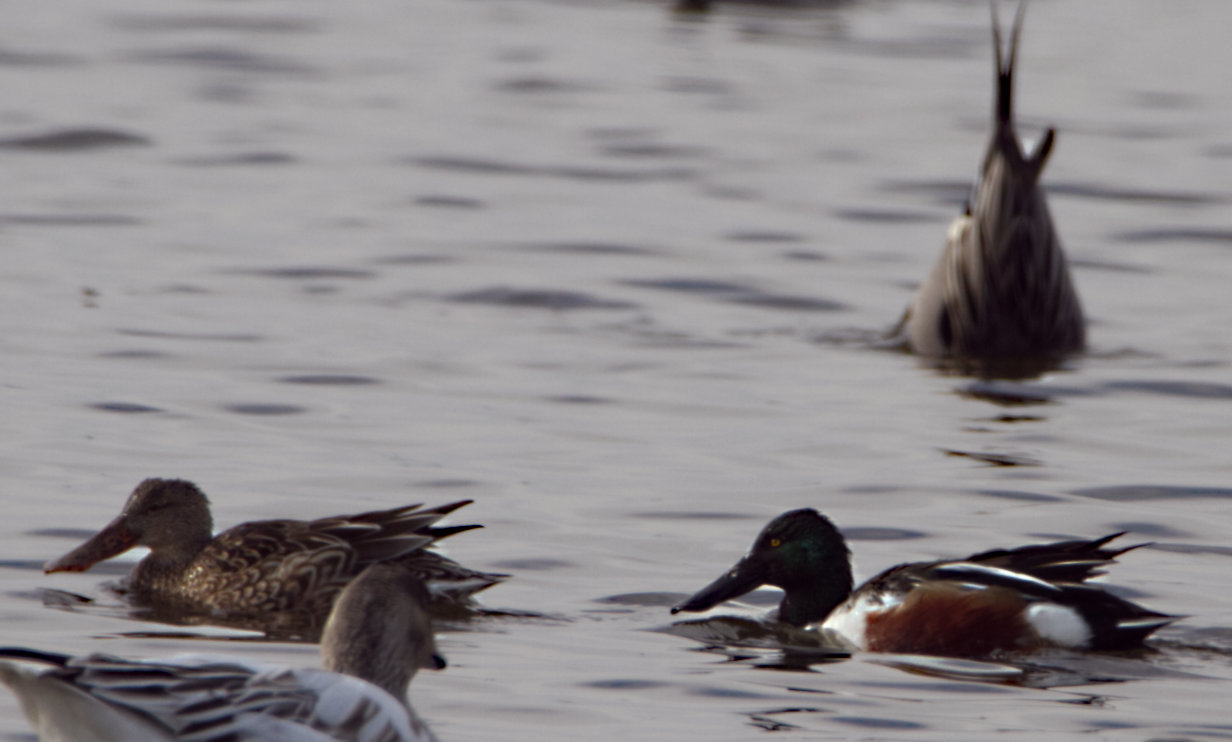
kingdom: Animalia
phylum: Chordata
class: Aves
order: Anseriformes
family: Anatidae
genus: Spatula
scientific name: Spatula clypeata
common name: Northern shoveler
